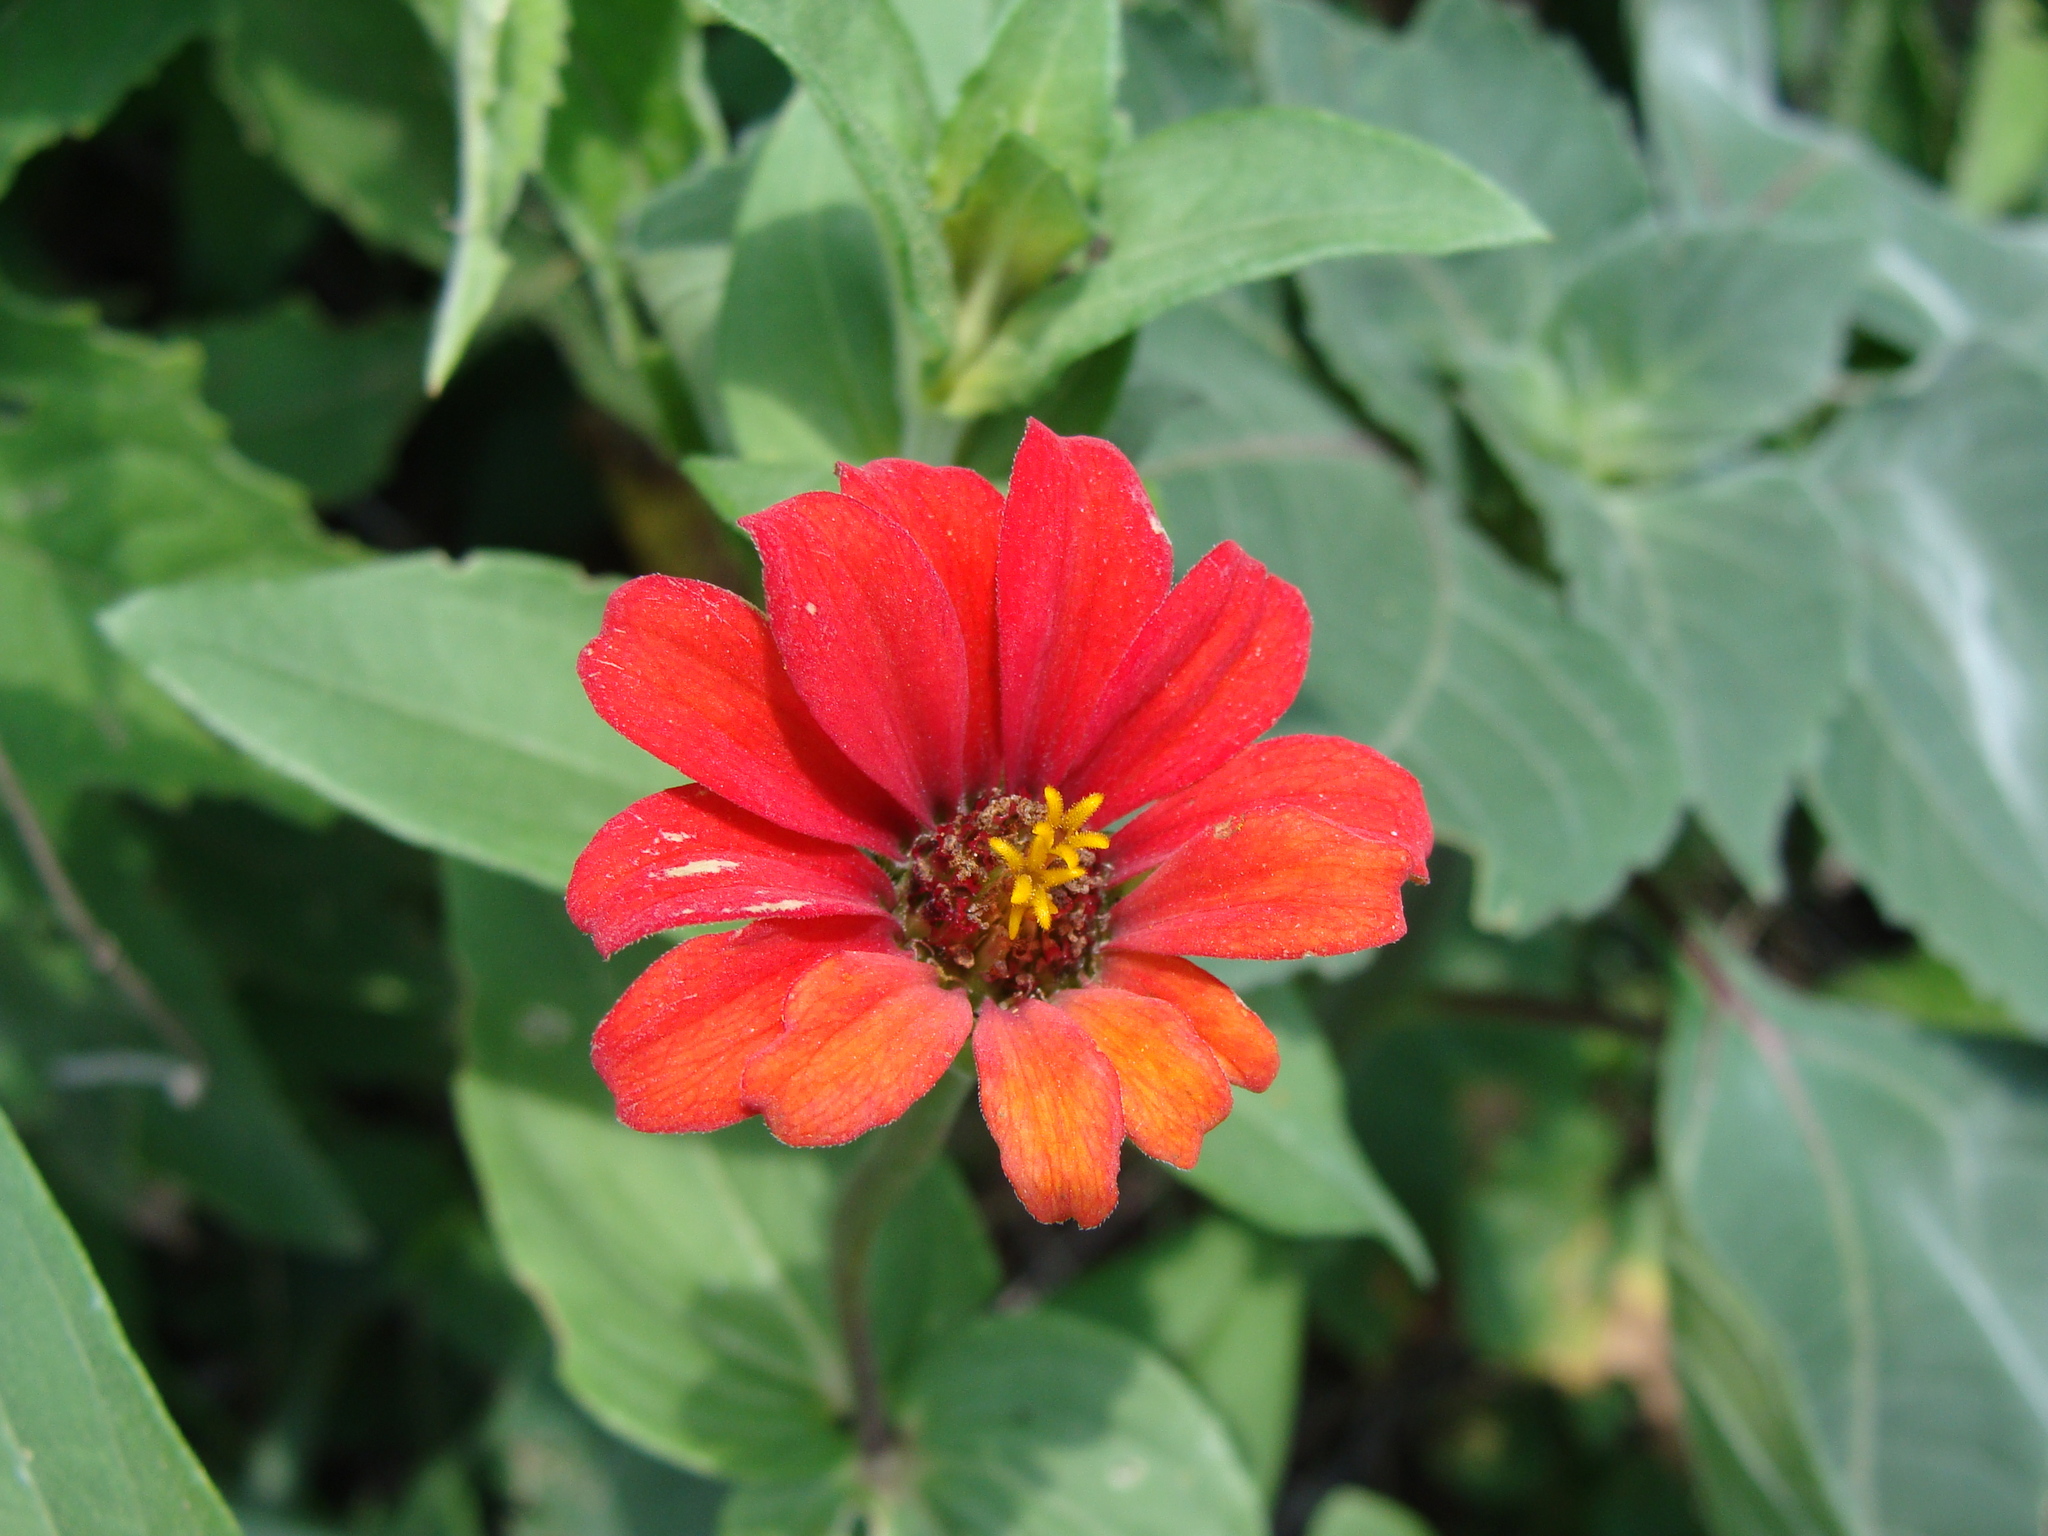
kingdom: Plantae
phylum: Tracheophyta
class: Magnoliopsida
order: Asterales
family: Asteraceae
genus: Zinnia
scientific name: Zinnia peruviana
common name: Peruvian zinnia
